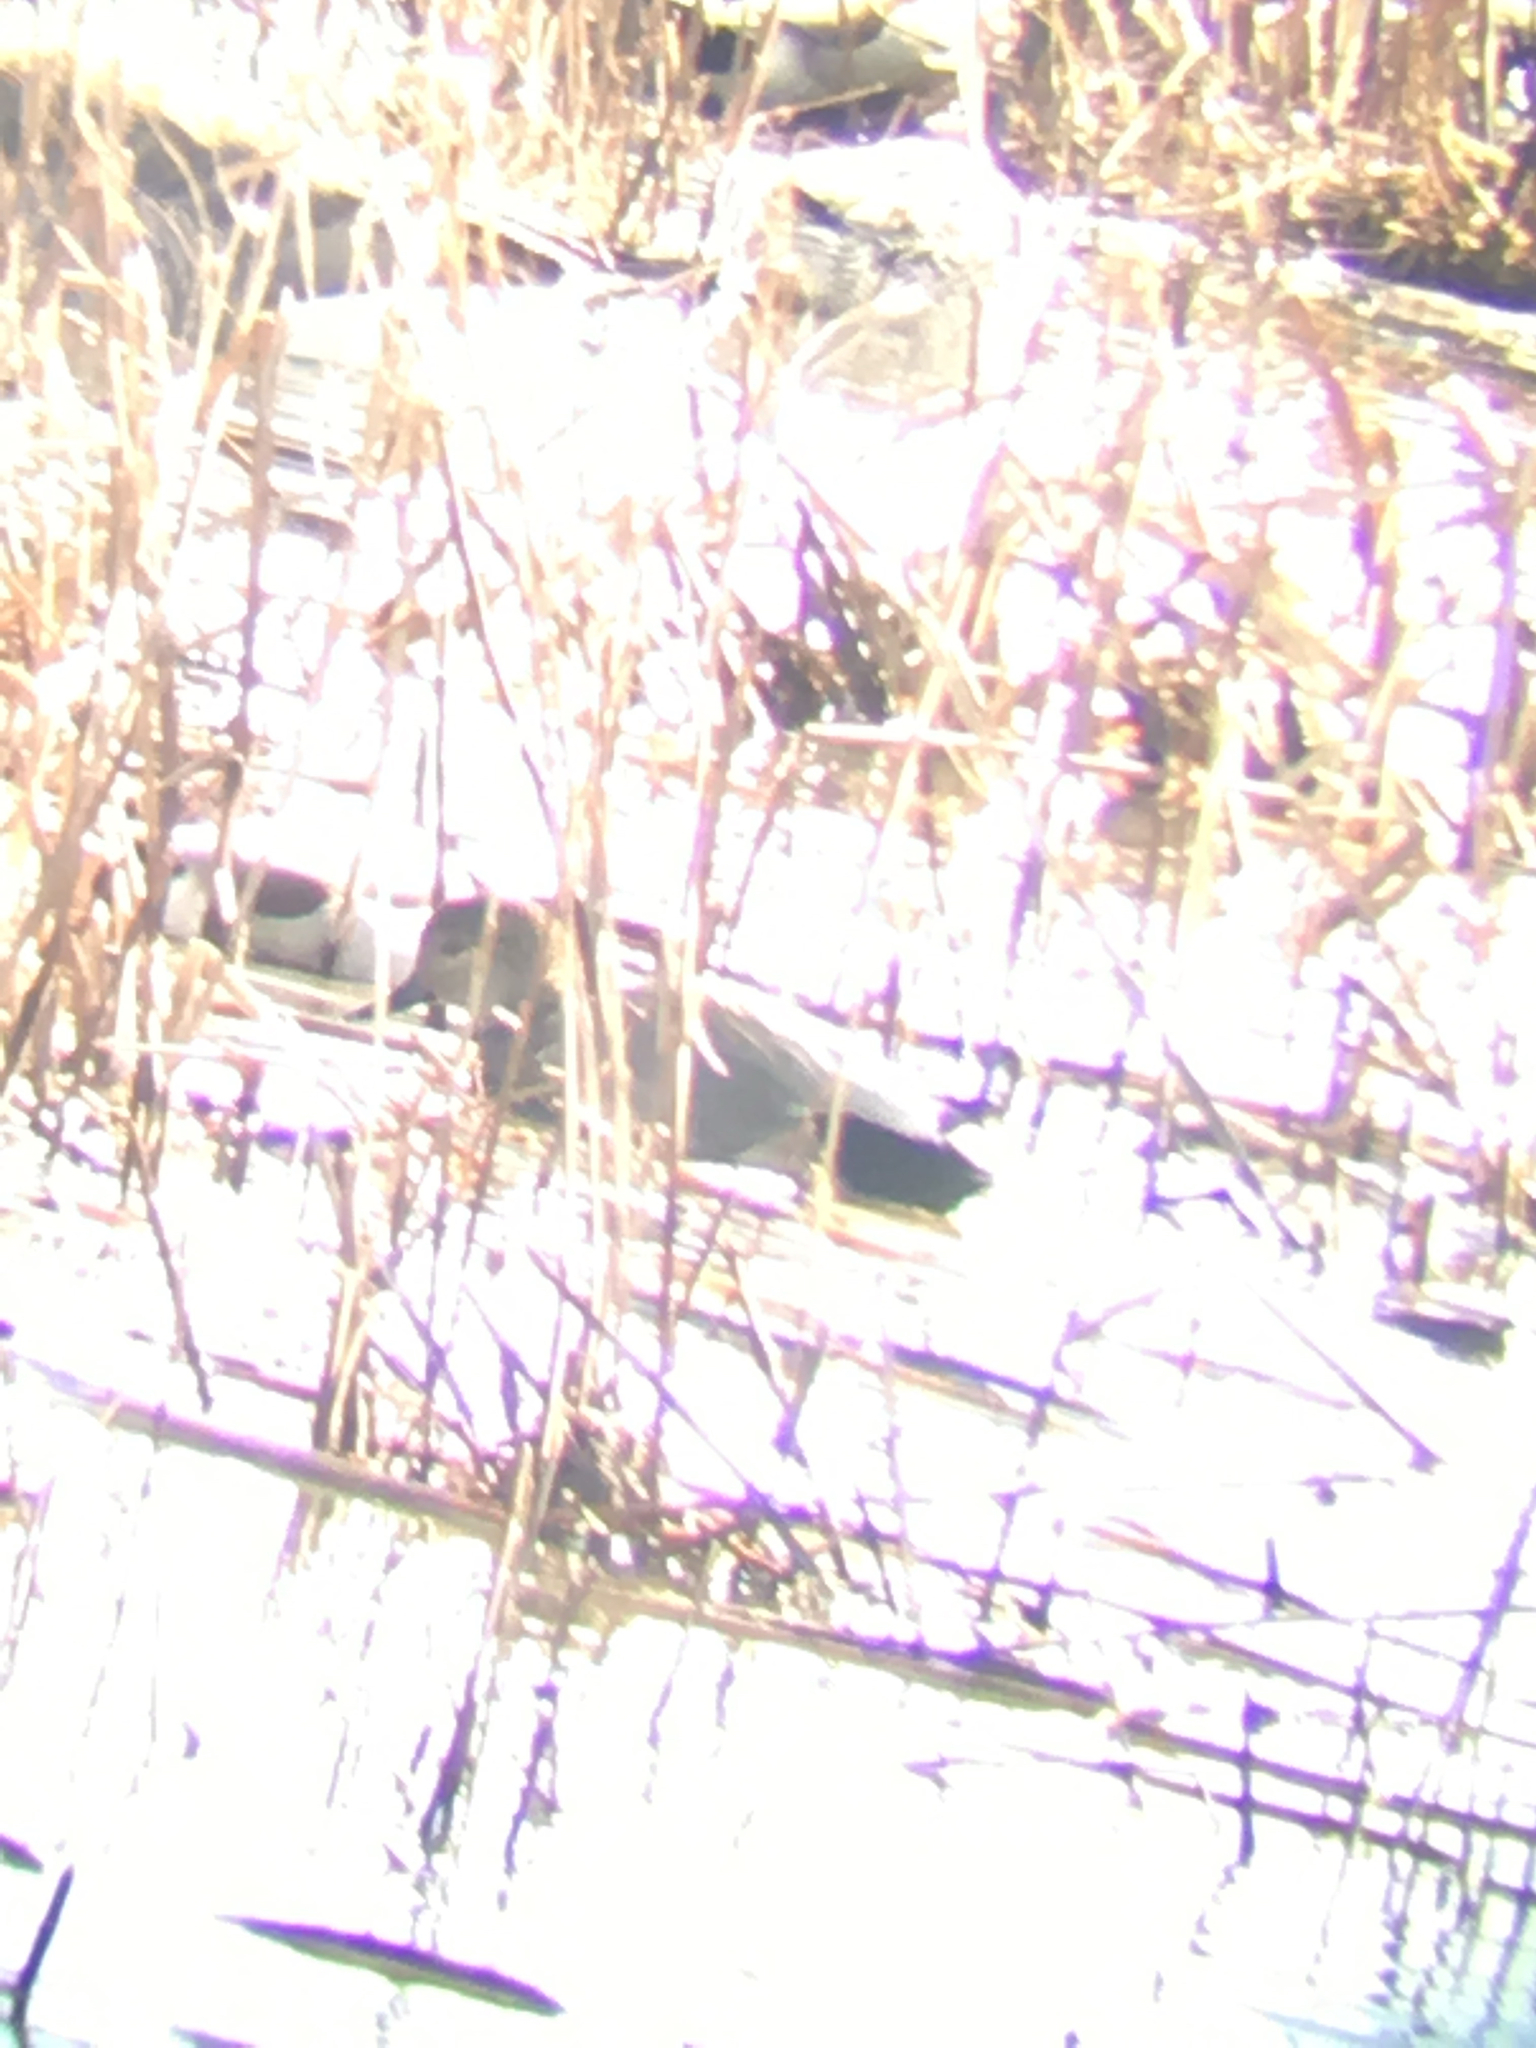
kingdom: Animalia
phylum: Chordata
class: Aves
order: Anseriformes
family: Anatidae
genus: Mareca
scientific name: Mareca strepera
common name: Gadwall
